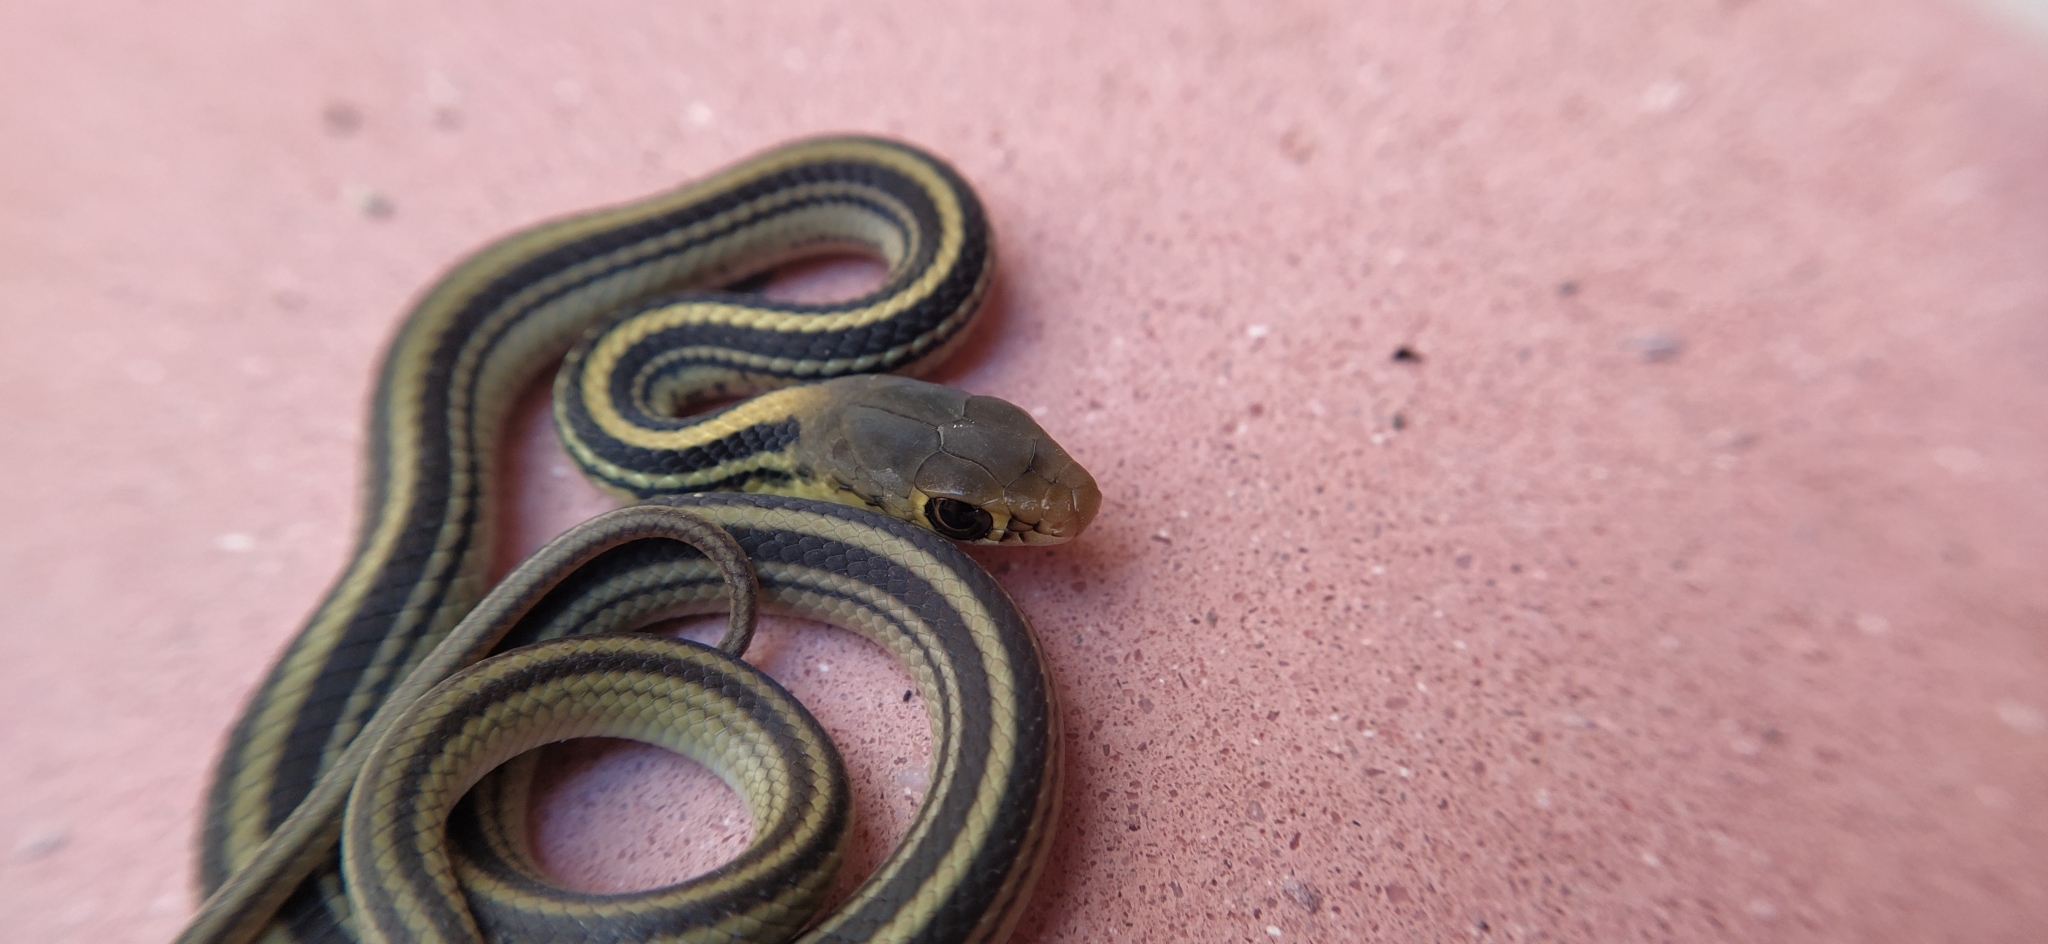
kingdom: Animalia
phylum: Chordata
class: Squamata
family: Colubridae
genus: Salvadora
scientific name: Salvadora bairdi
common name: Baird's patchnose snake
